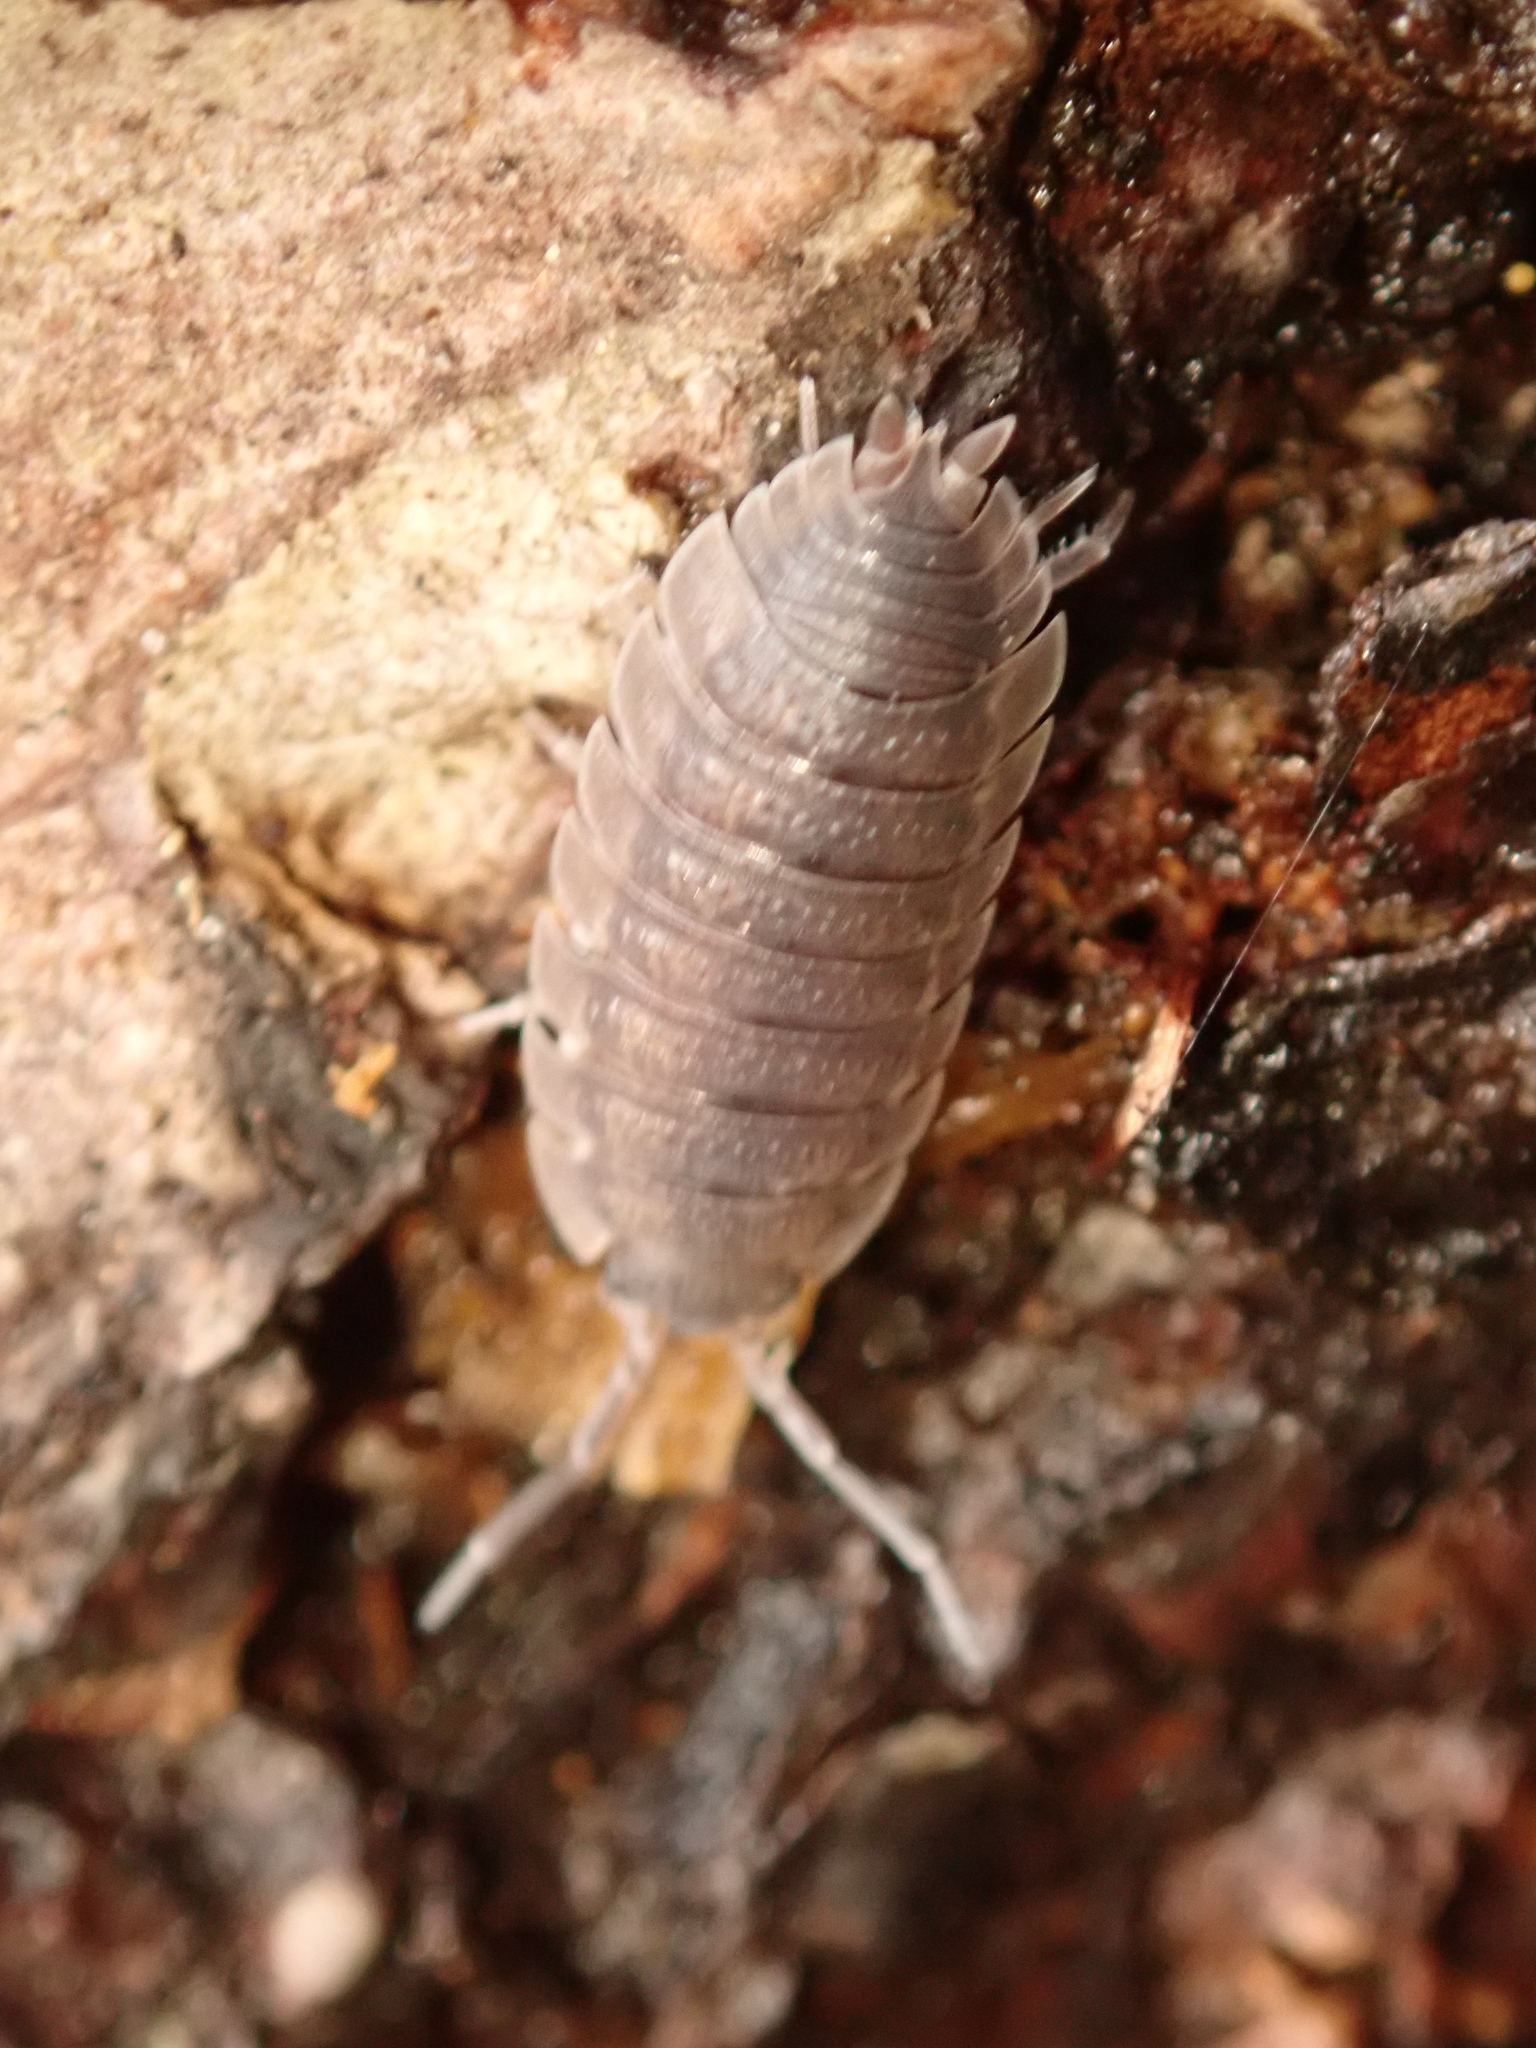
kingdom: Animalia
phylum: Arthropoda
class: Malacostraca
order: Isopoda
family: Porcellionidae
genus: Porcellio
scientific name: Porcellio scaber
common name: Common rough woodlouse
